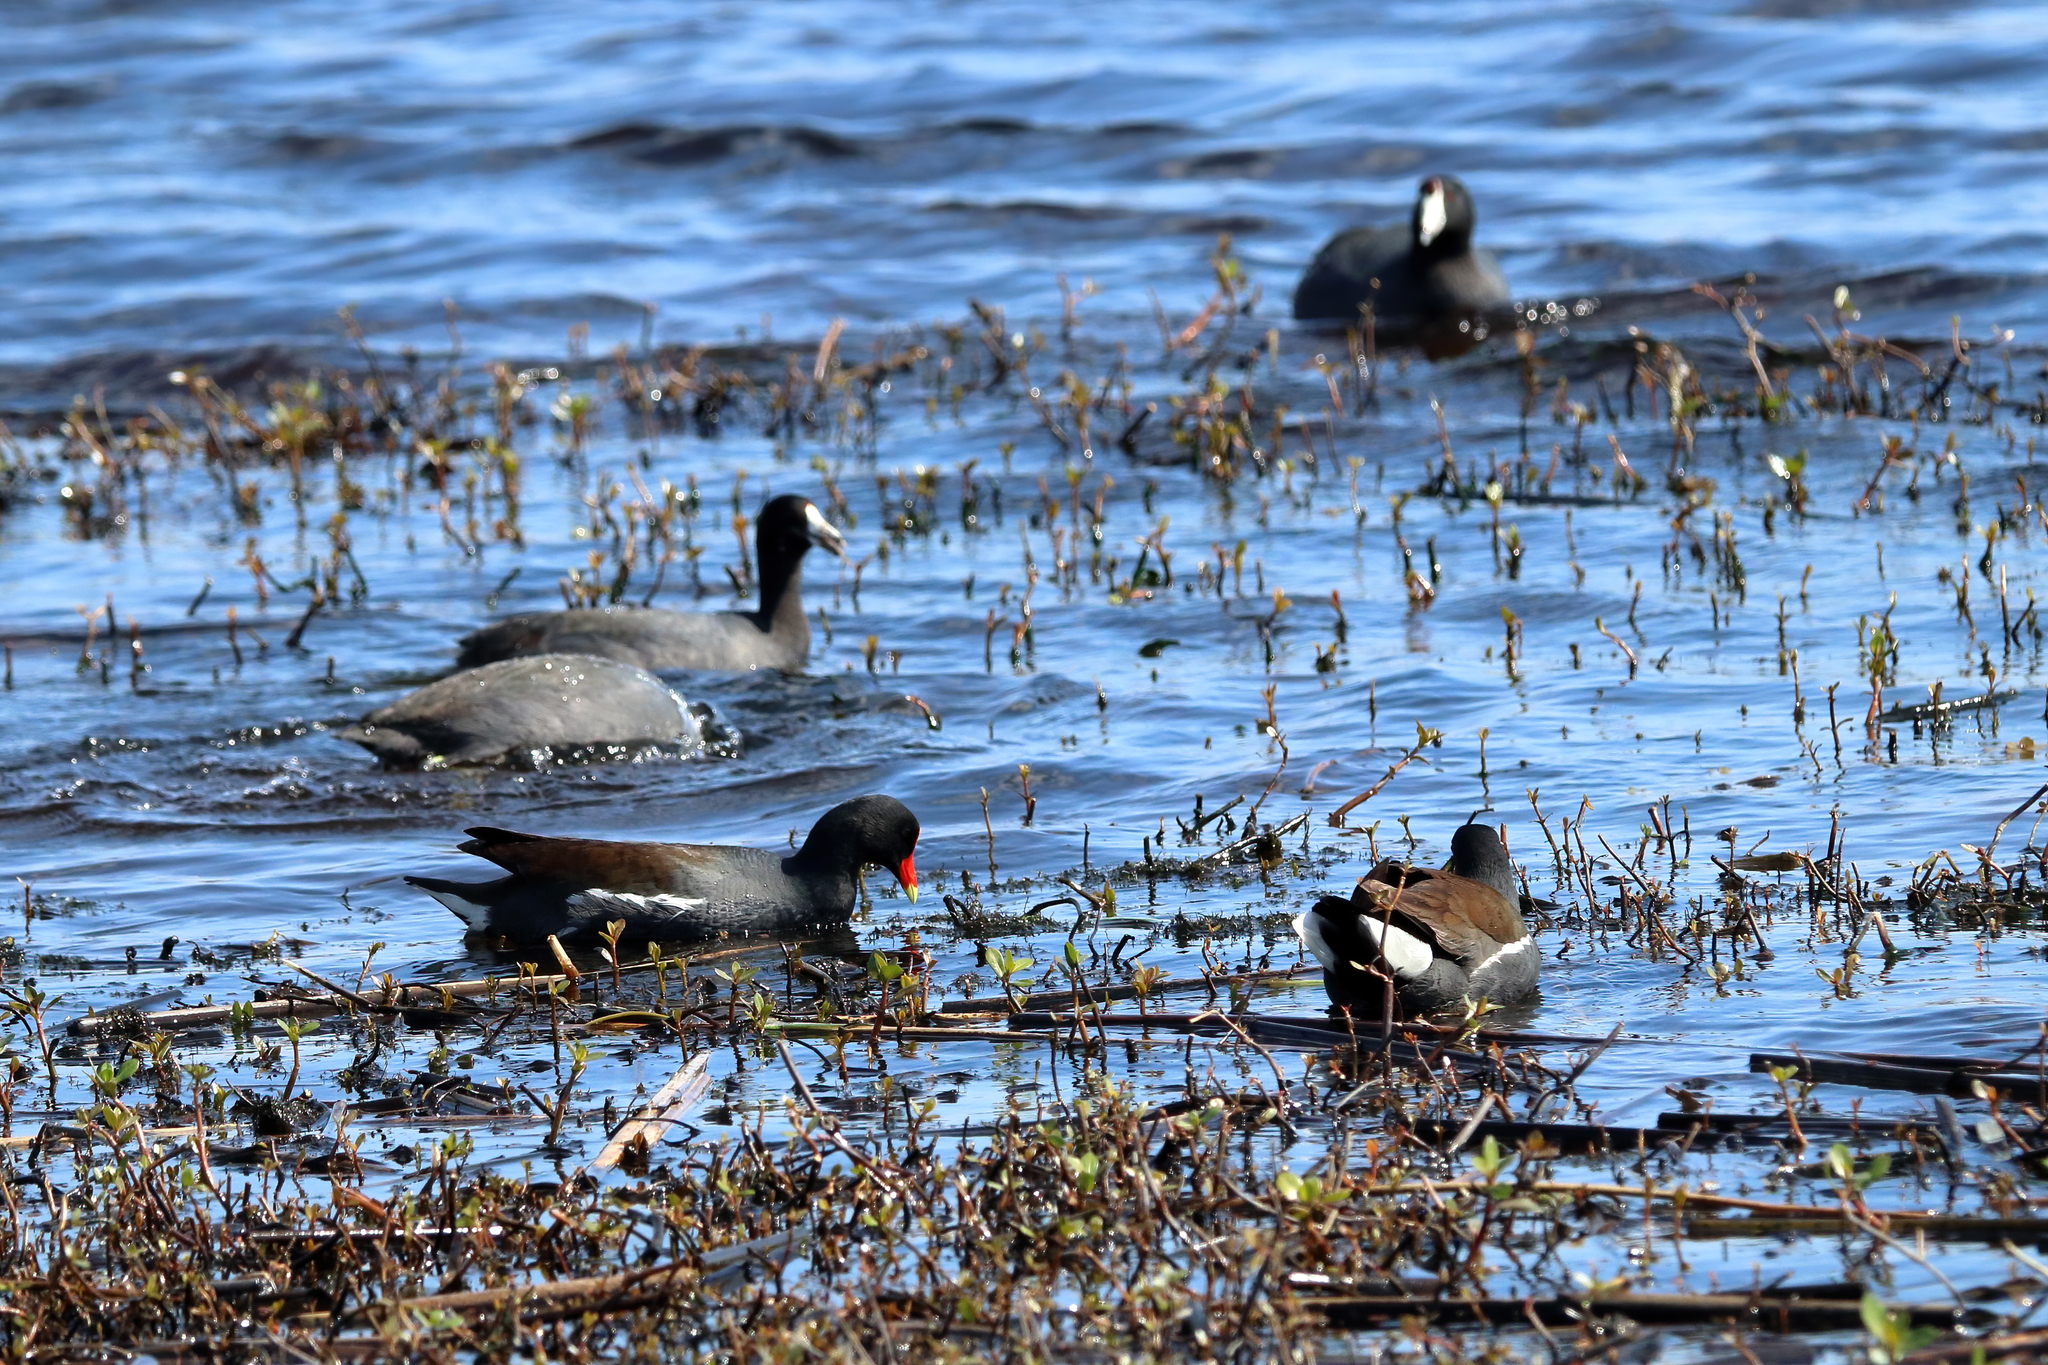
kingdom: Animalia
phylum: Chordata
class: Aves
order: Gruiformes
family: Rallidae
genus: Gallinula
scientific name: Gallinula chloropus
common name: Common moorhen
